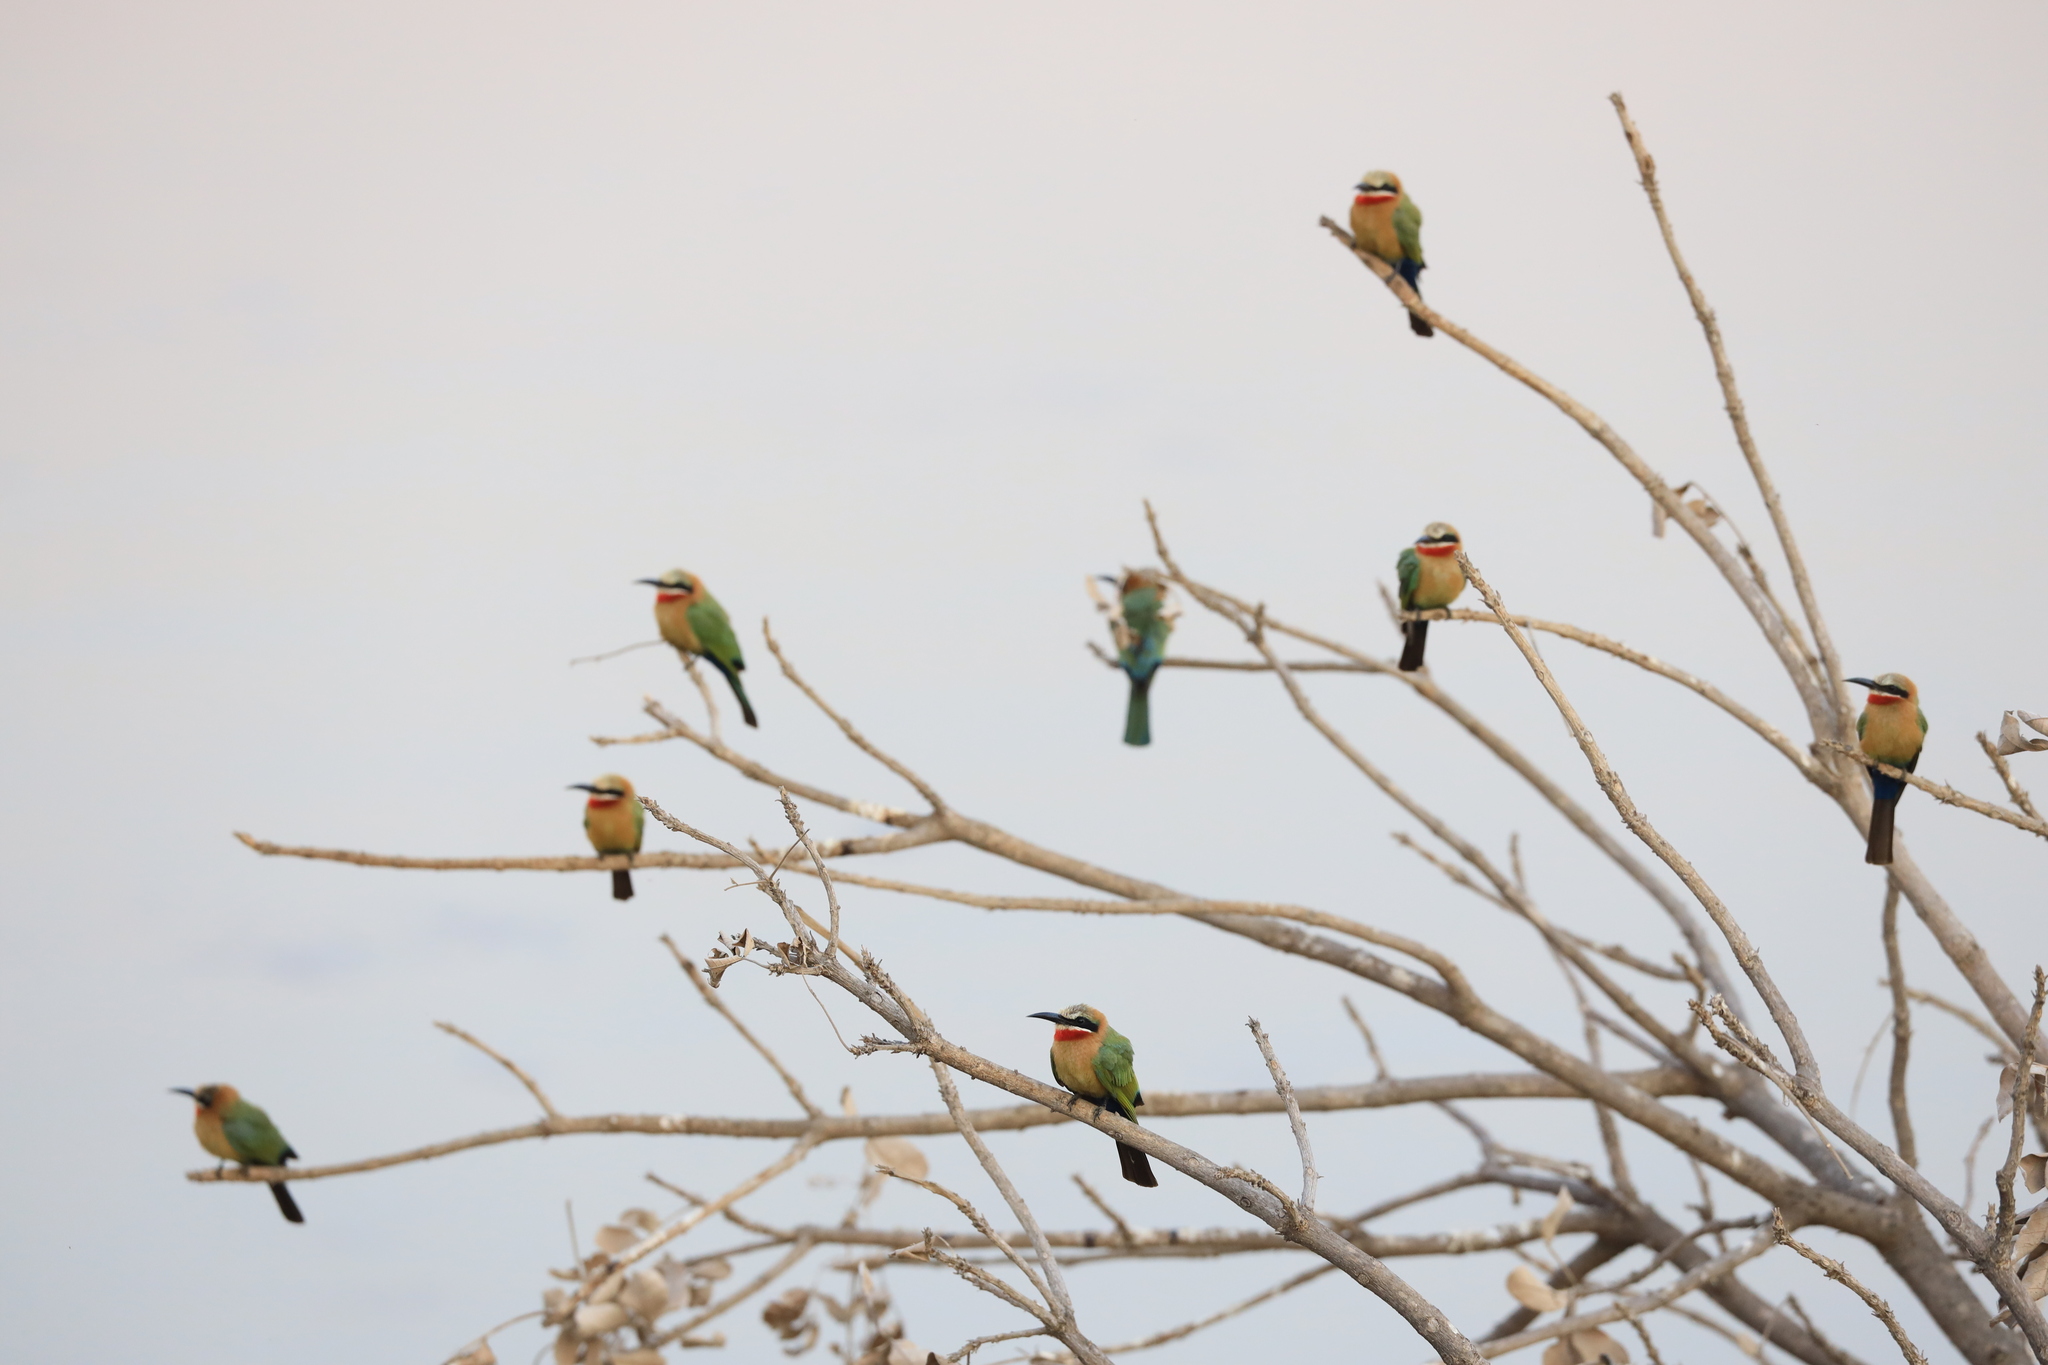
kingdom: Animalia
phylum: Chordata
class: Aves
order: Coraciiformes
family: Meropidae
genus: Merops
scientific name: Merops bullockoides
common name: White-fronted bee-eater
